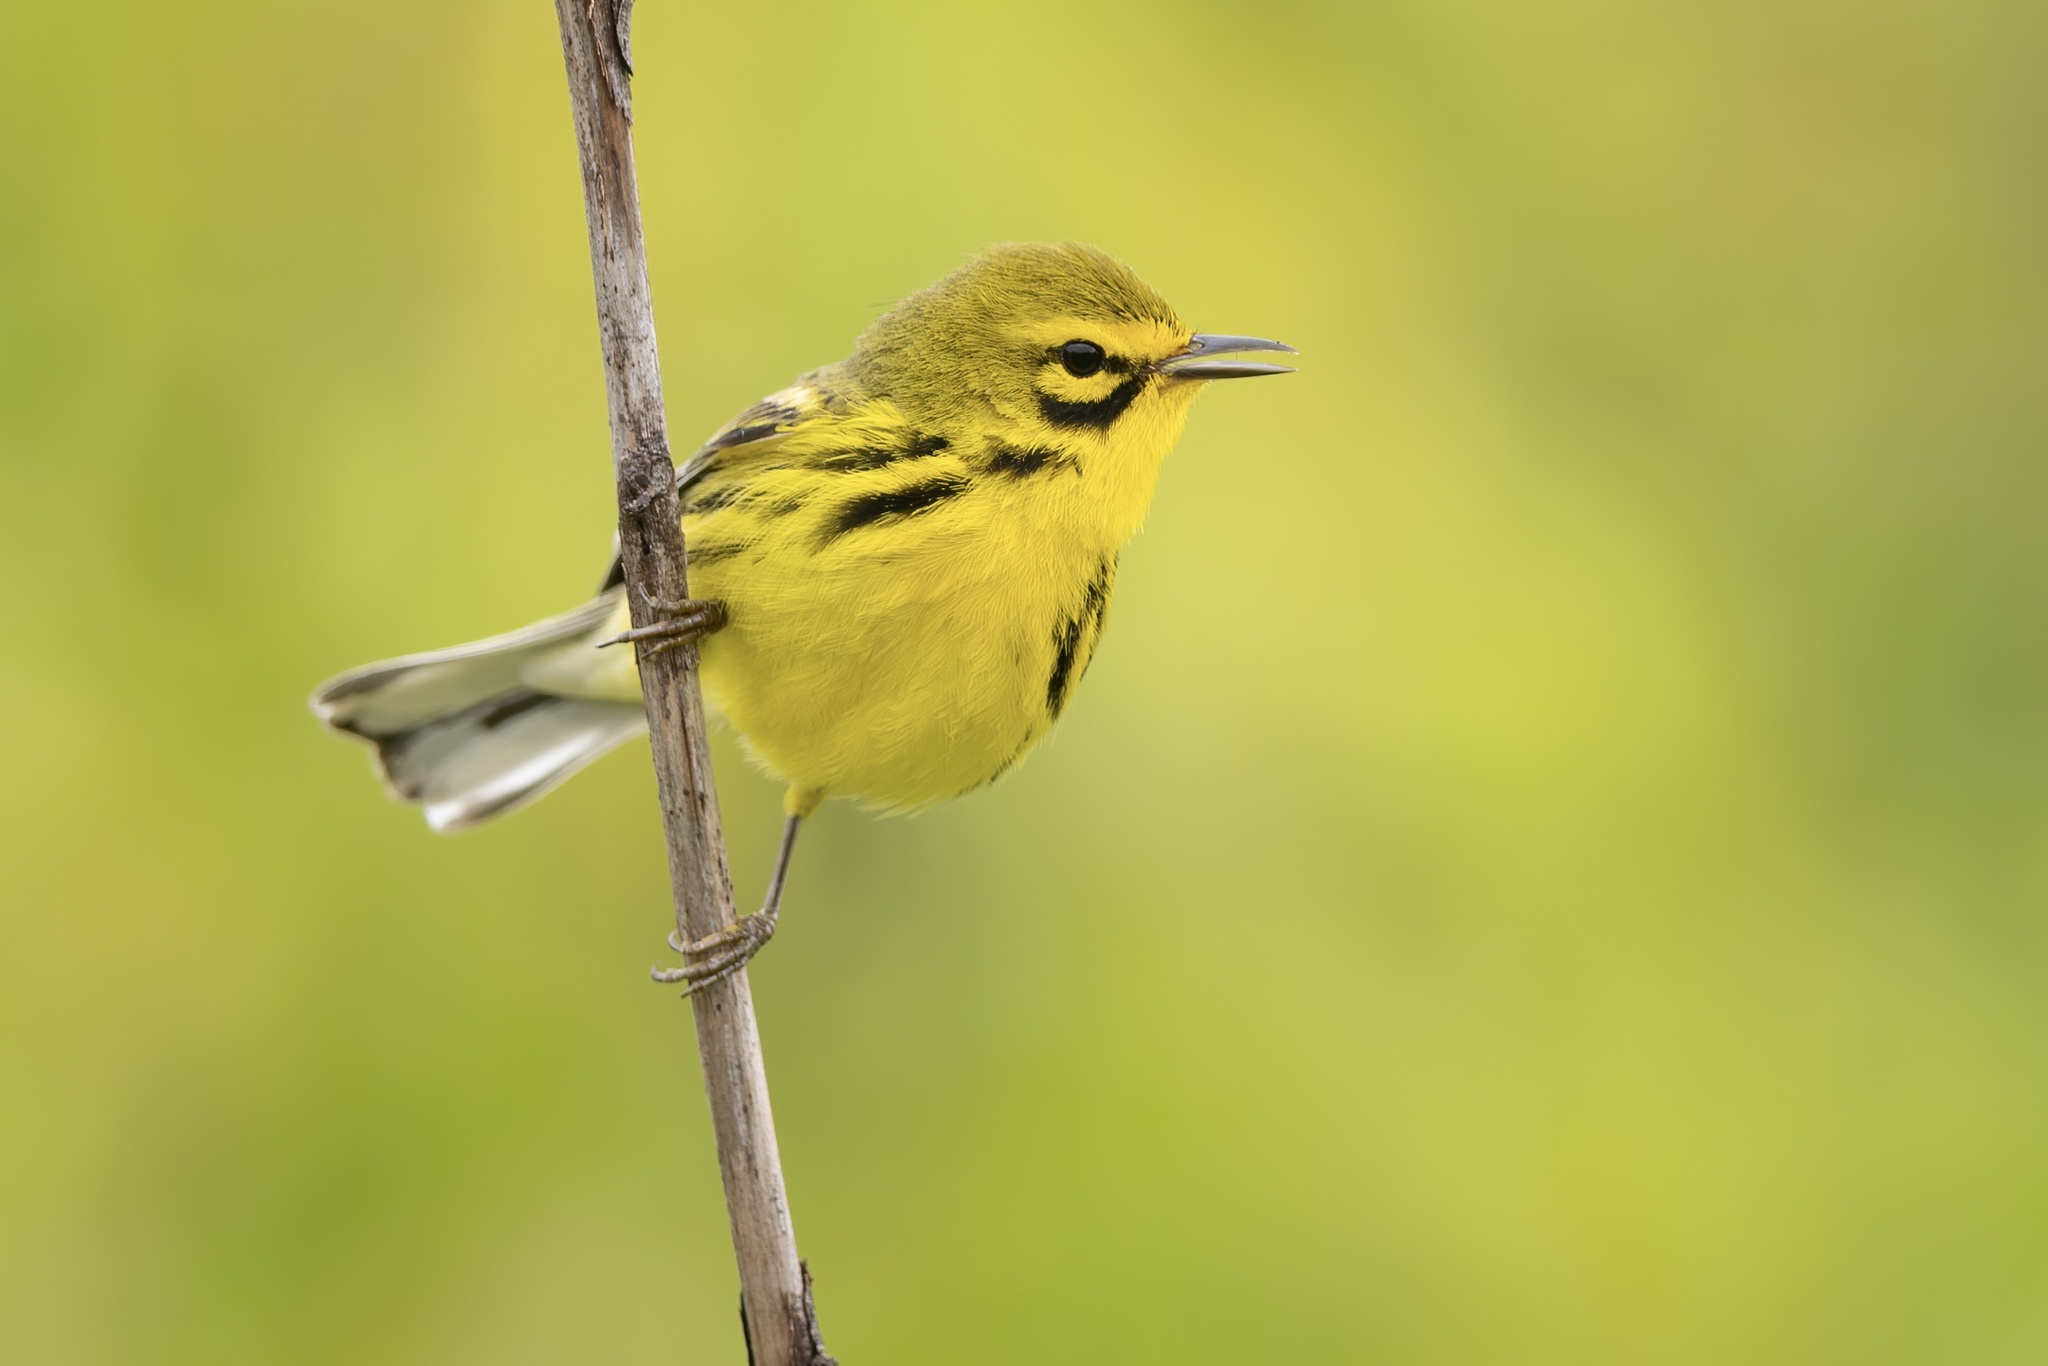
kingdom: Animalia
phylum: Chordata
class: Aves
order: Passeriformes
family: Parulidae
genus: Setophaga
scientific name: Setophaga discolor
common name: Prairie warbler
